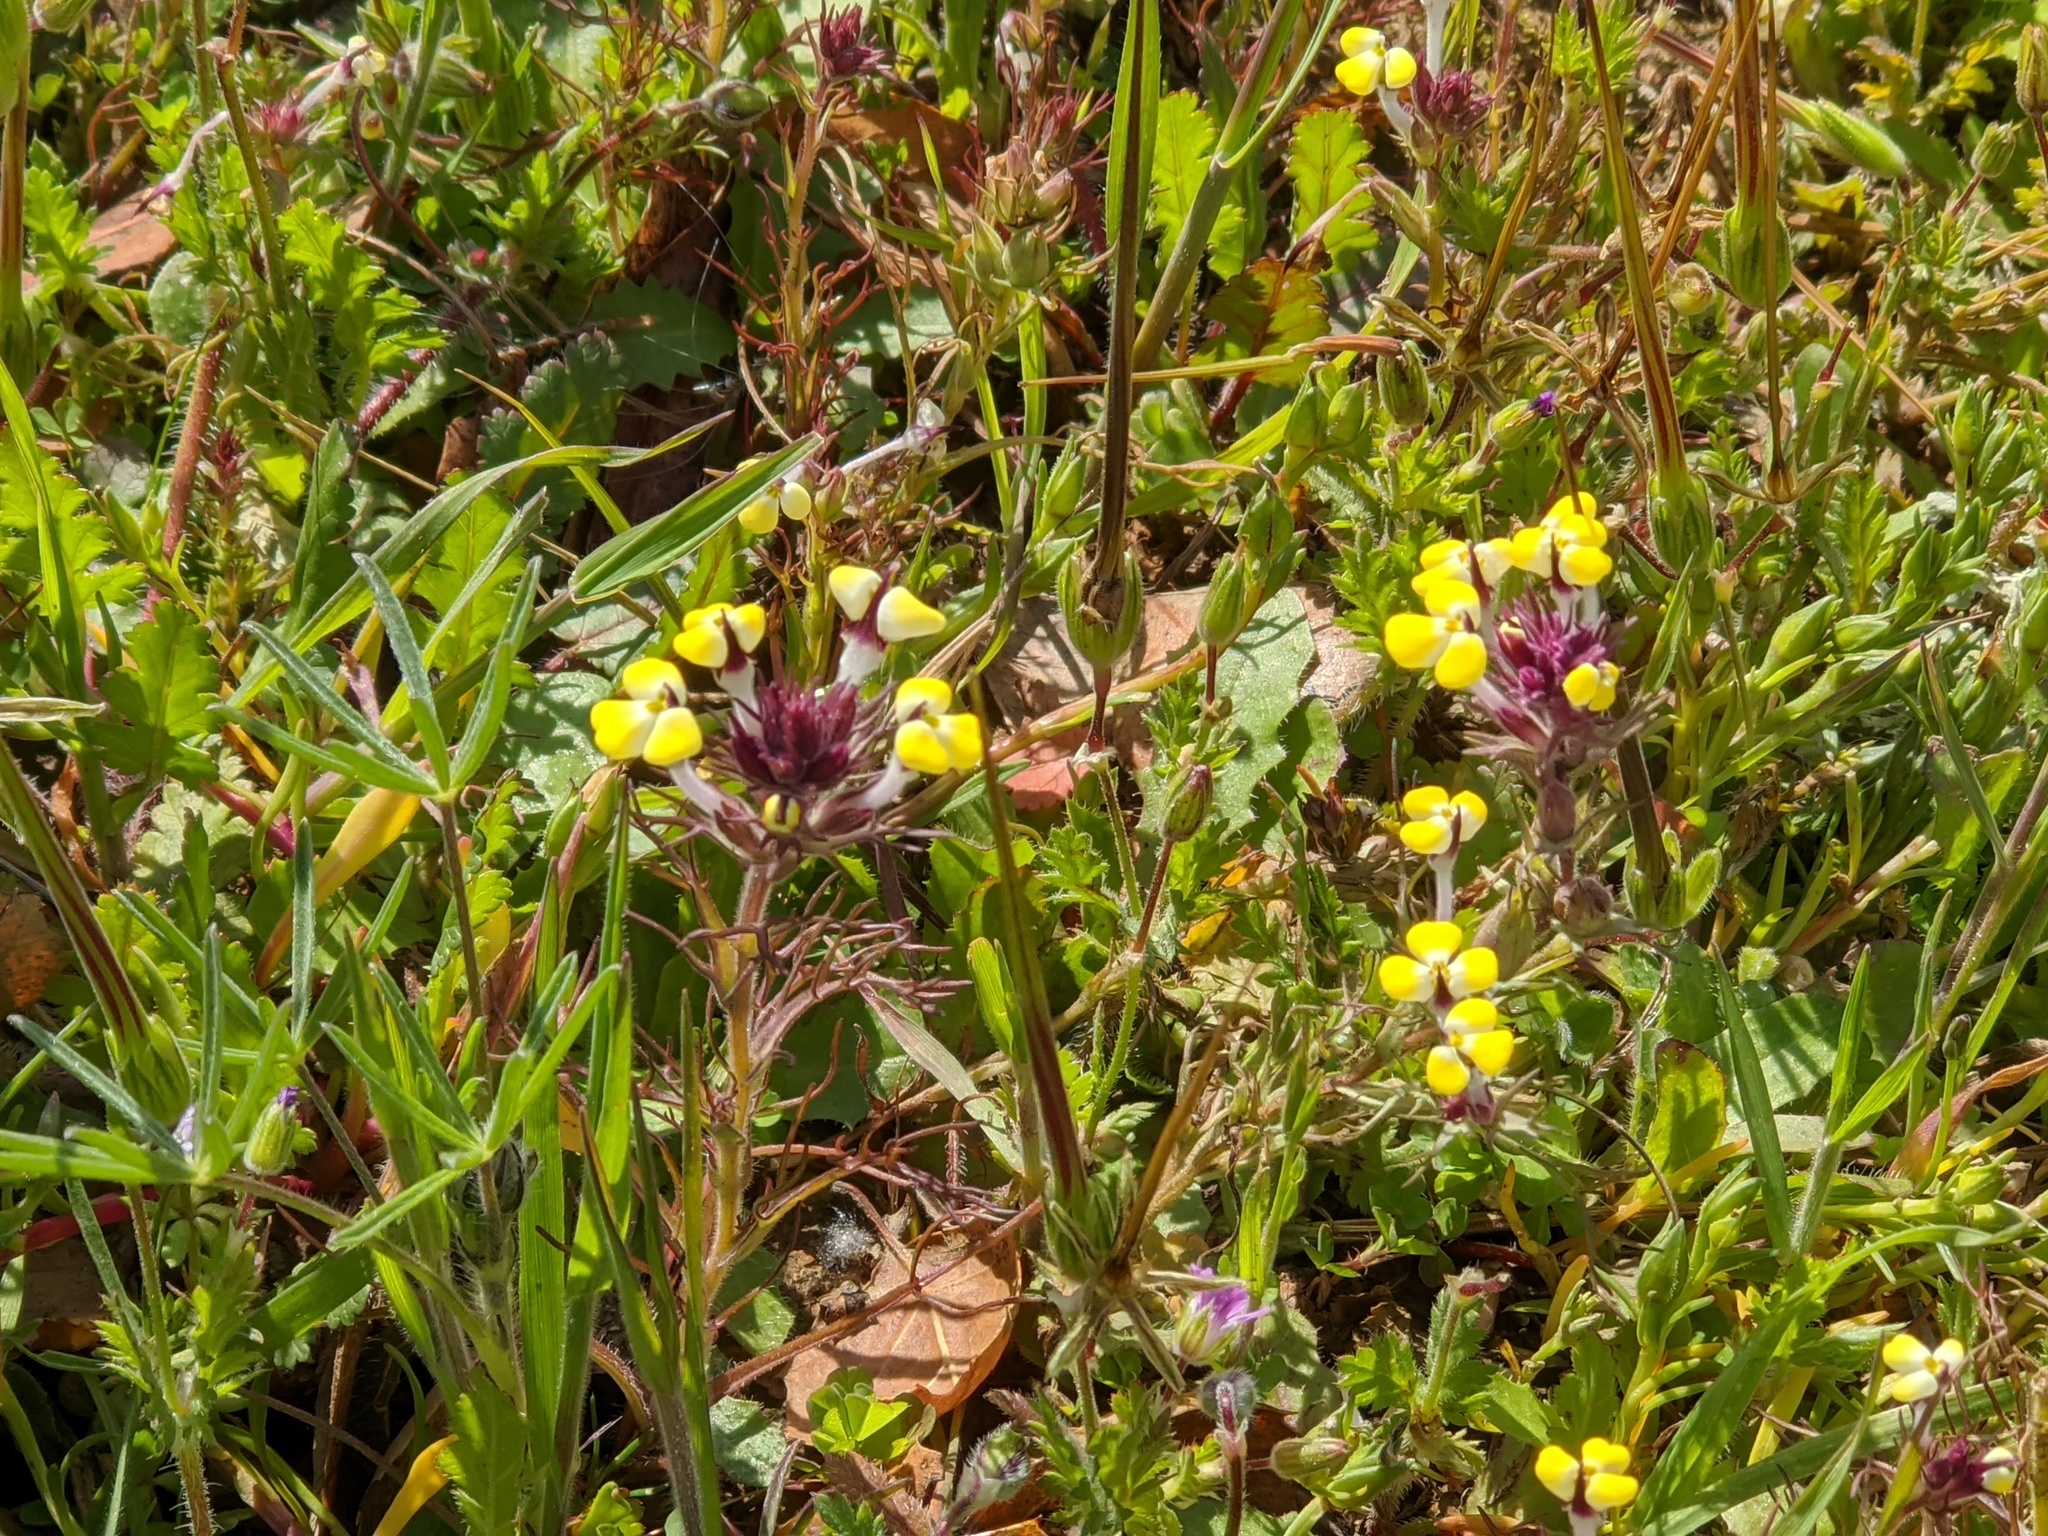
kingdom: Plantae
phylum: Tracheophyta
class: Magnoliopsida
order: Lamiales
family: Orobanchaceae
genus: Triphysaria
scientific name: Triphysaria eriantha
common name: Johnny-tuck
